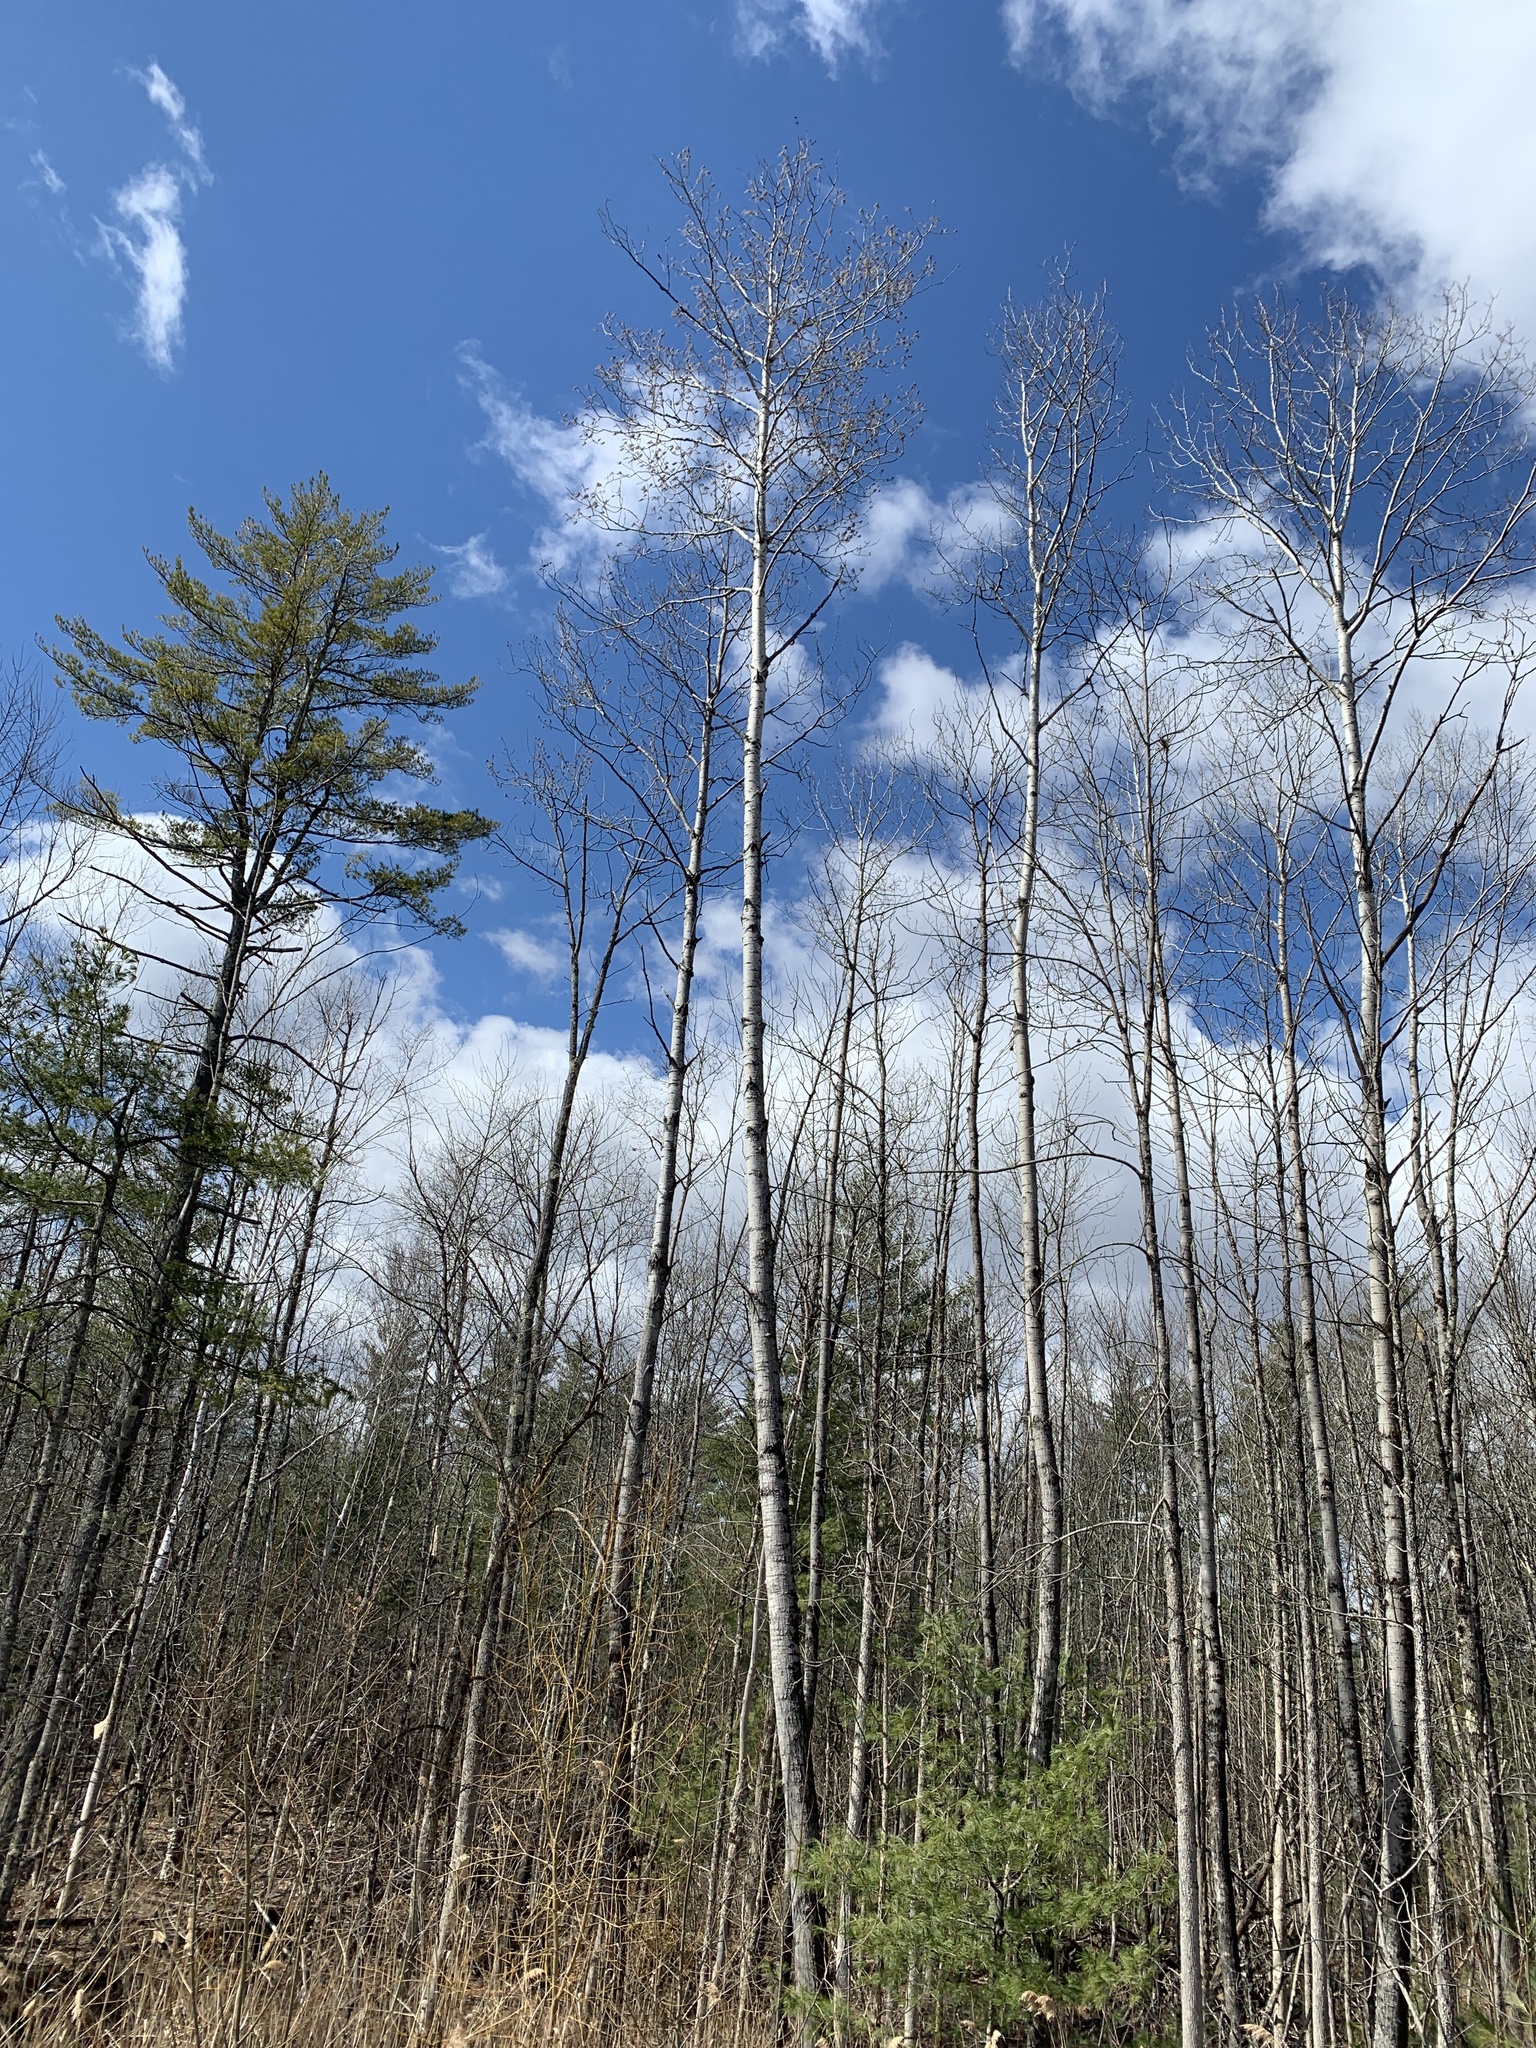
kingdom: Plantae
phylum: Tracheophyta
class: Magnoliopsida
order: Malpighiales
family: Salicaceae
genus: Populus
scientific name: Populus tremuloides
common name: Quaking aspen
